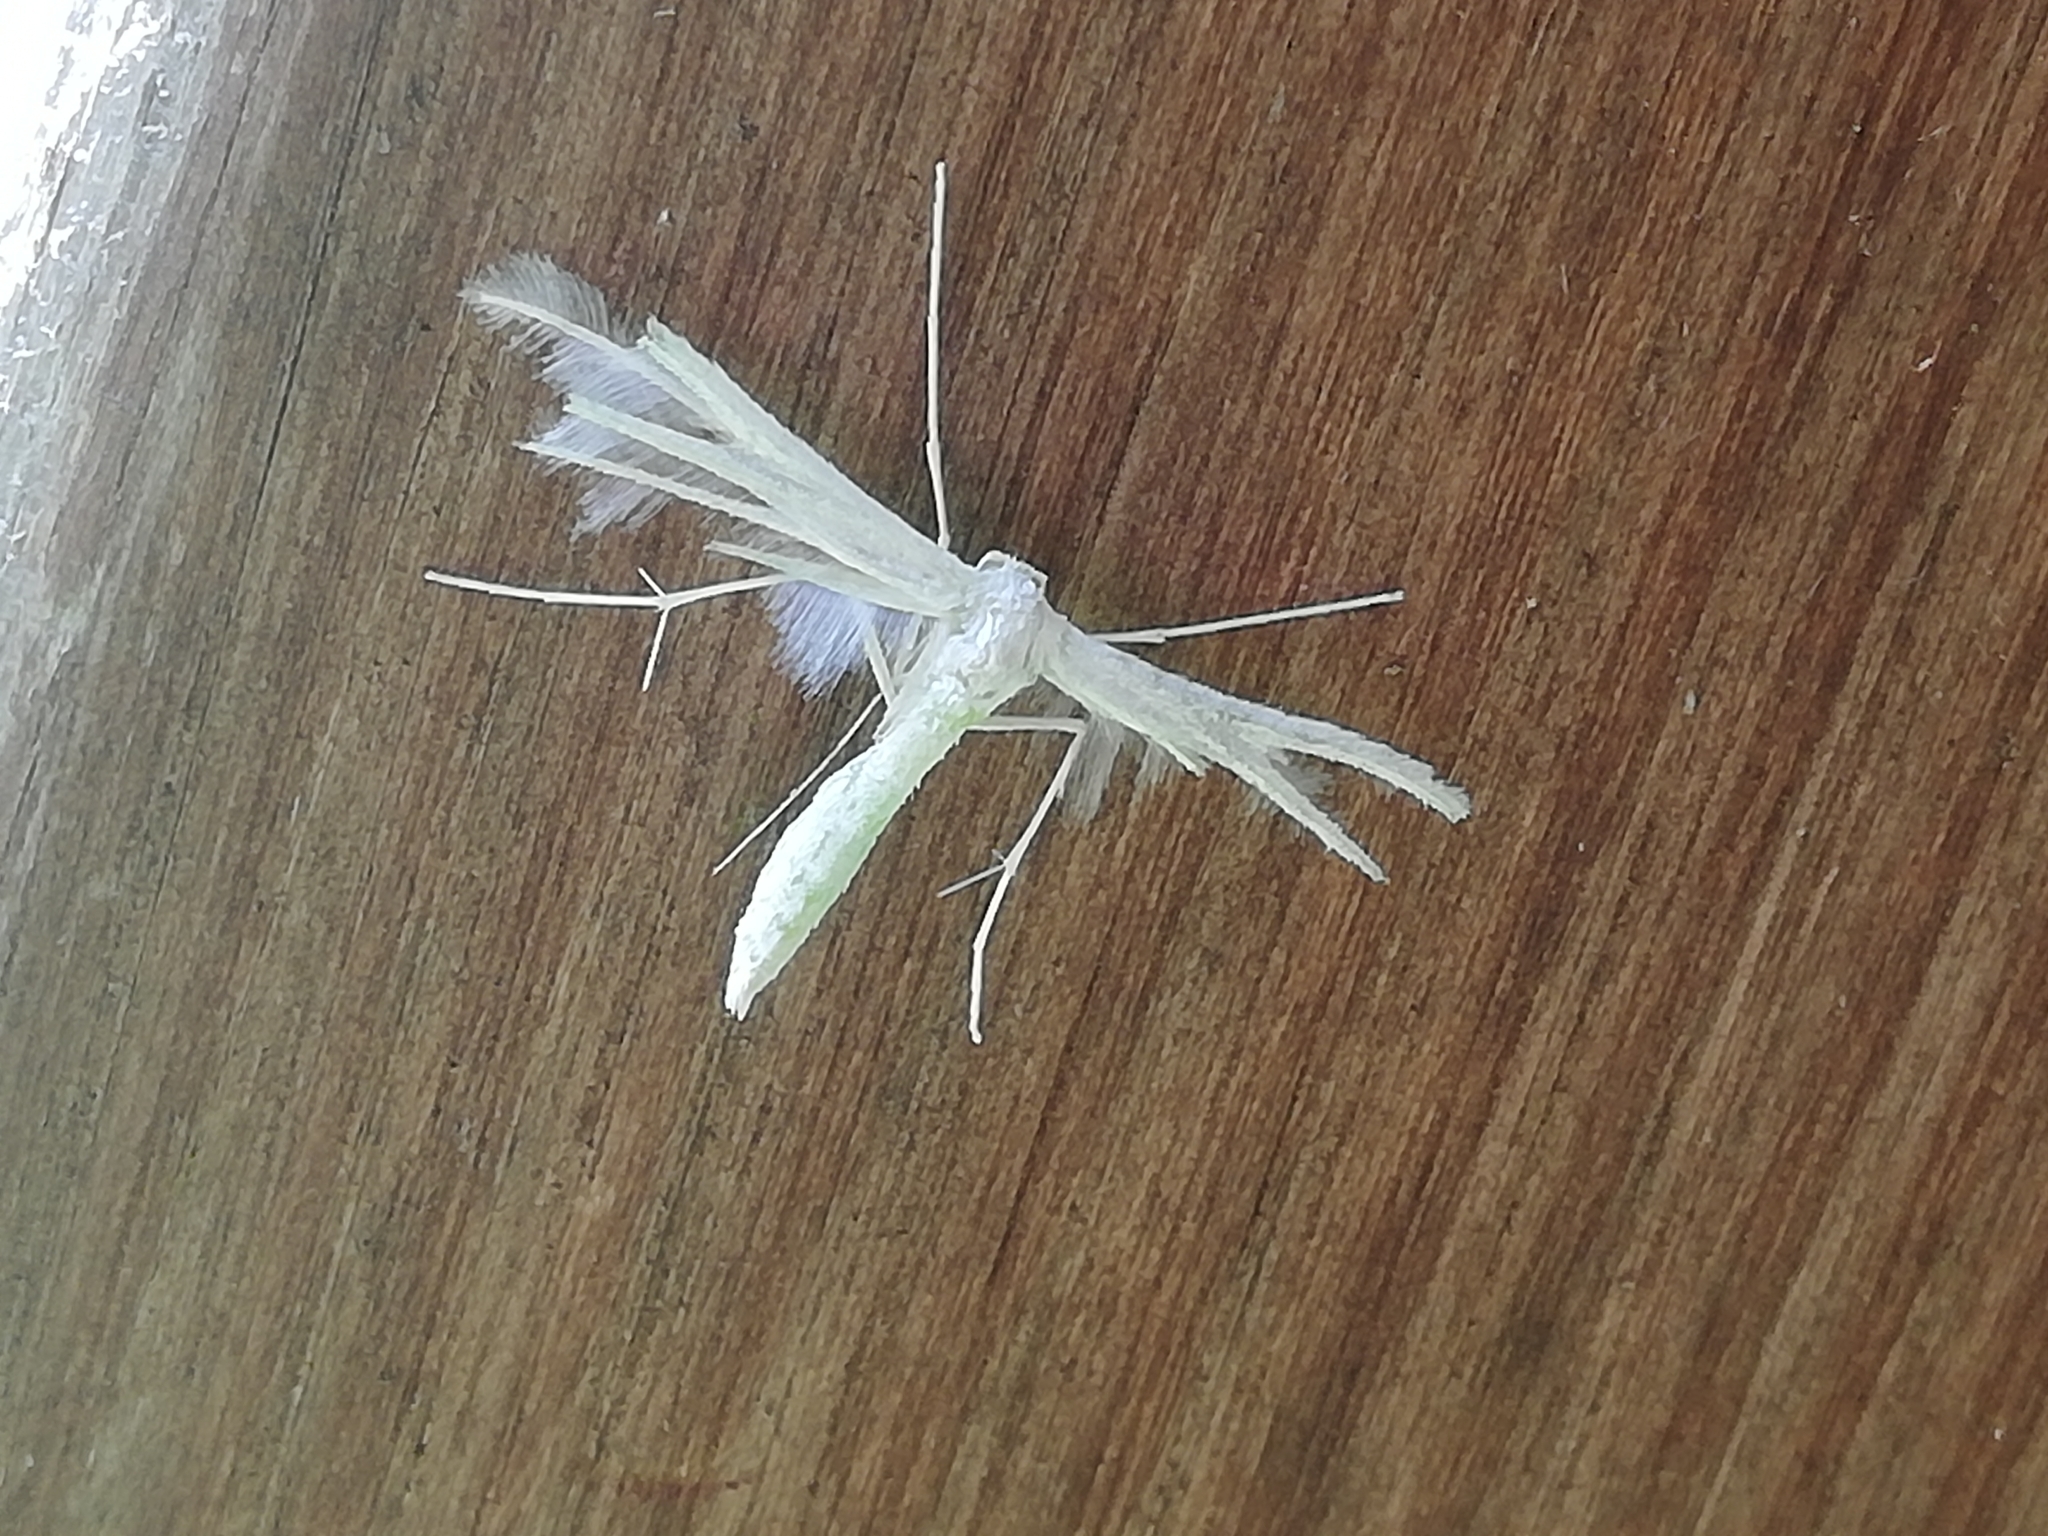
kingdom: Animalia
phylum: Arthropoda
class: Insecta
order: Lepidoptera
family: Pterophoridae
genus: Pterophorus
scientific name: Pterophorus pentadactyla
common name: White plume moth
